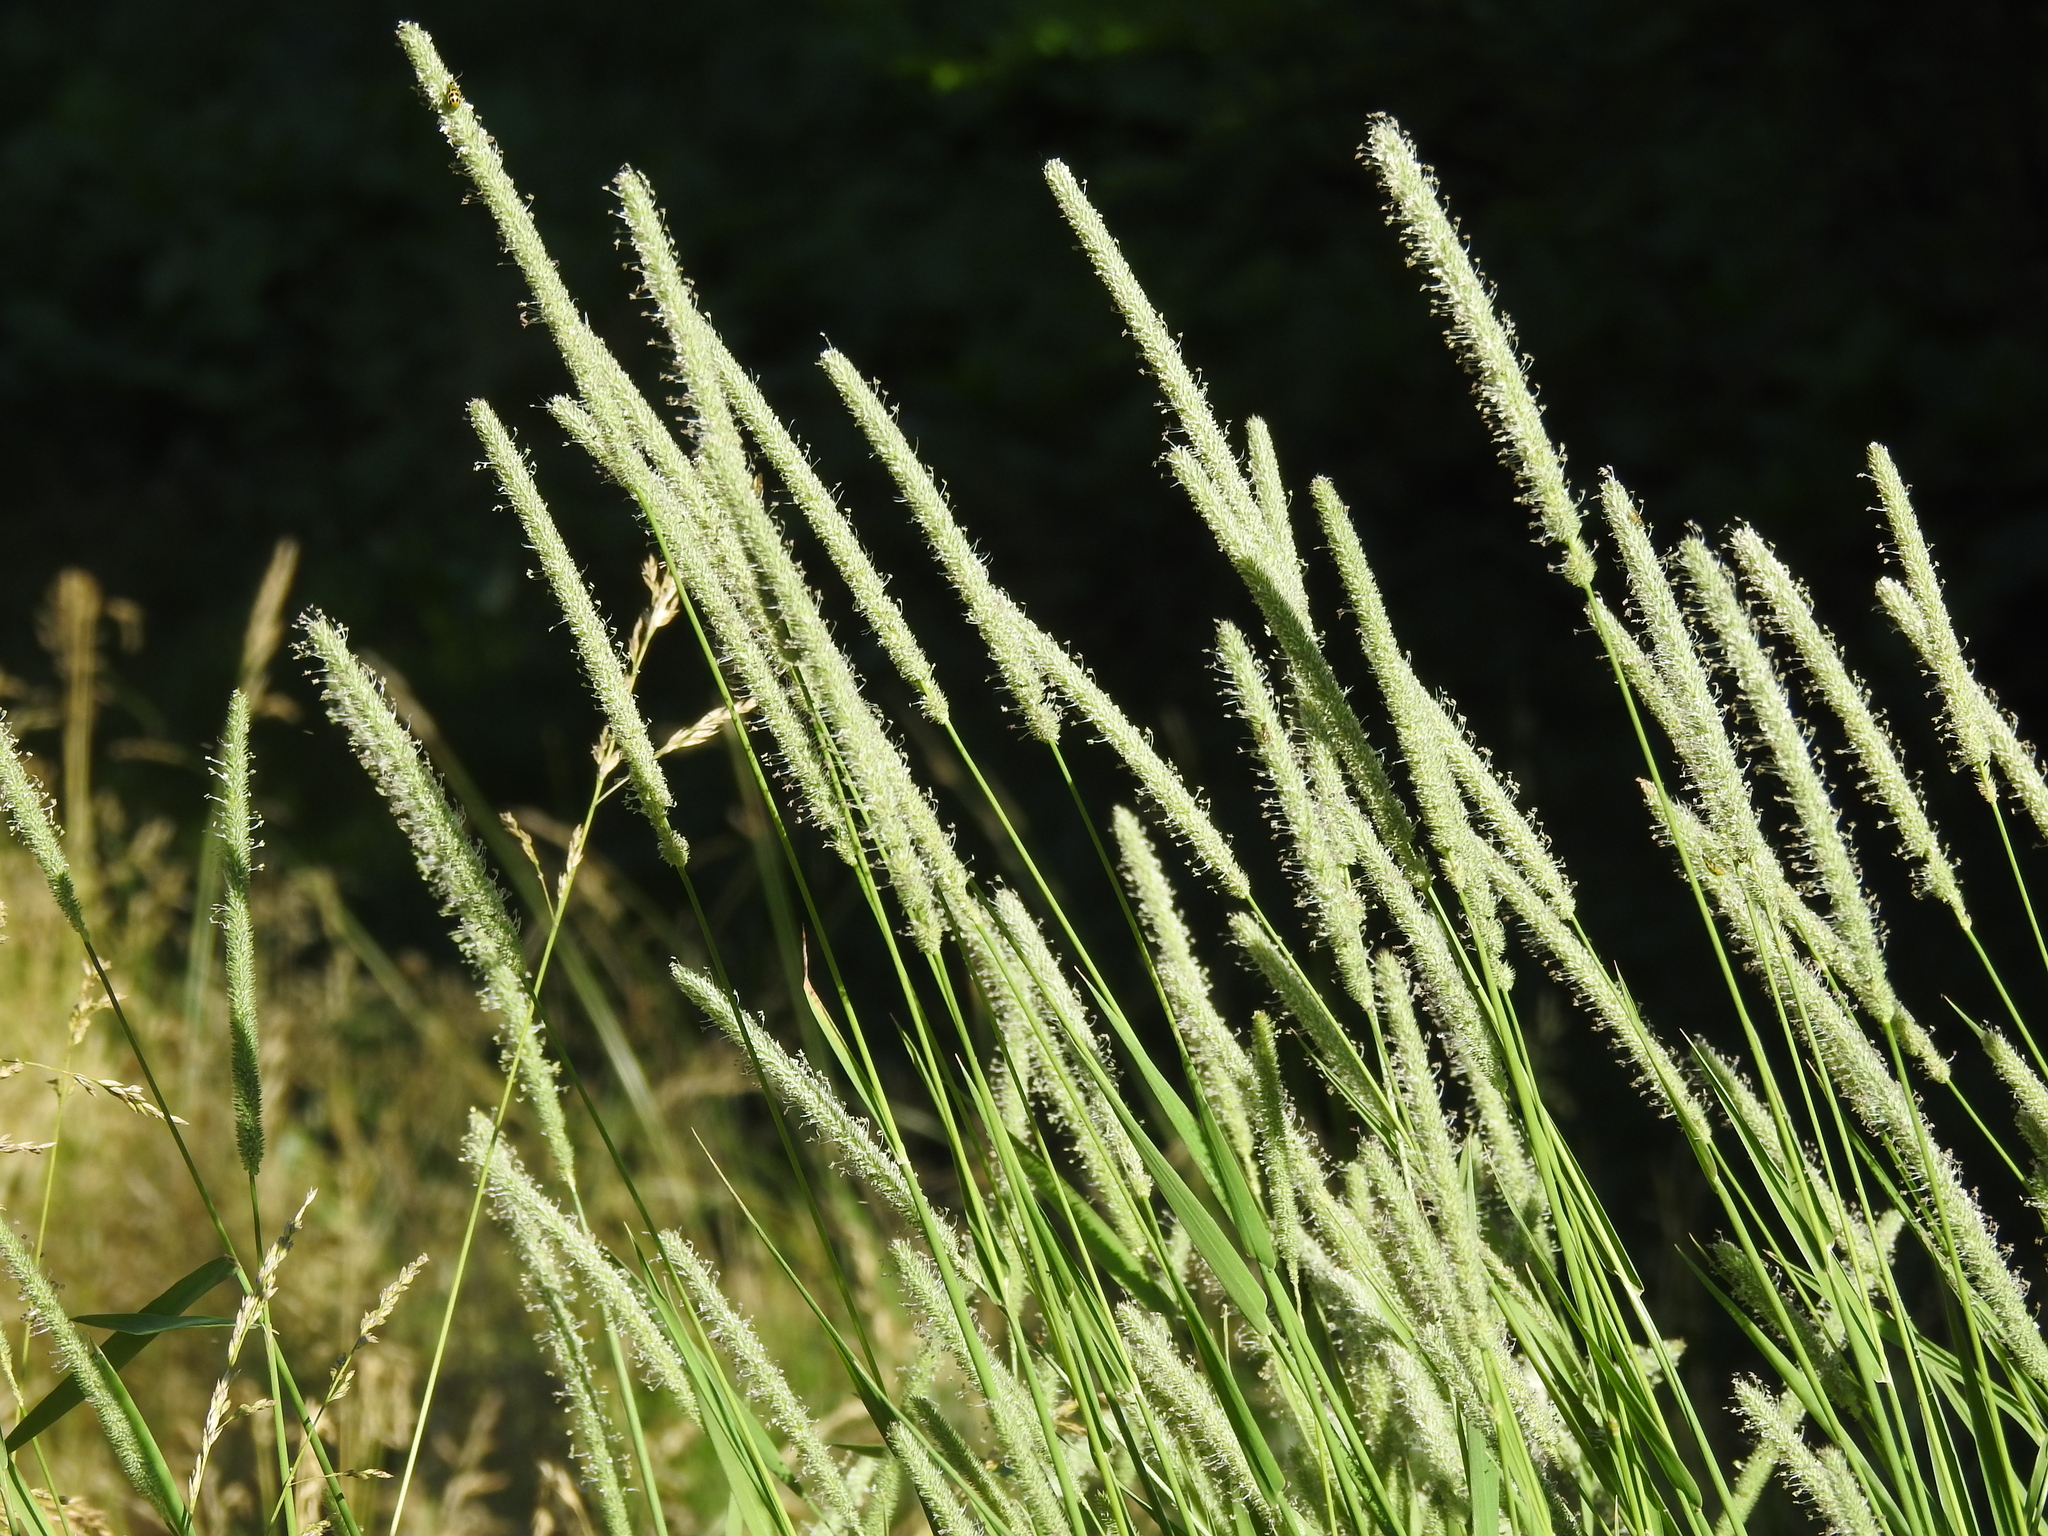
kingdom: Plantae
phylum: Tracheophyta
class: Liliopsida
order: Poales
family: Poaceae
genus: Phleum
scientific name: Phleum pratense
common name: Timothy grass
